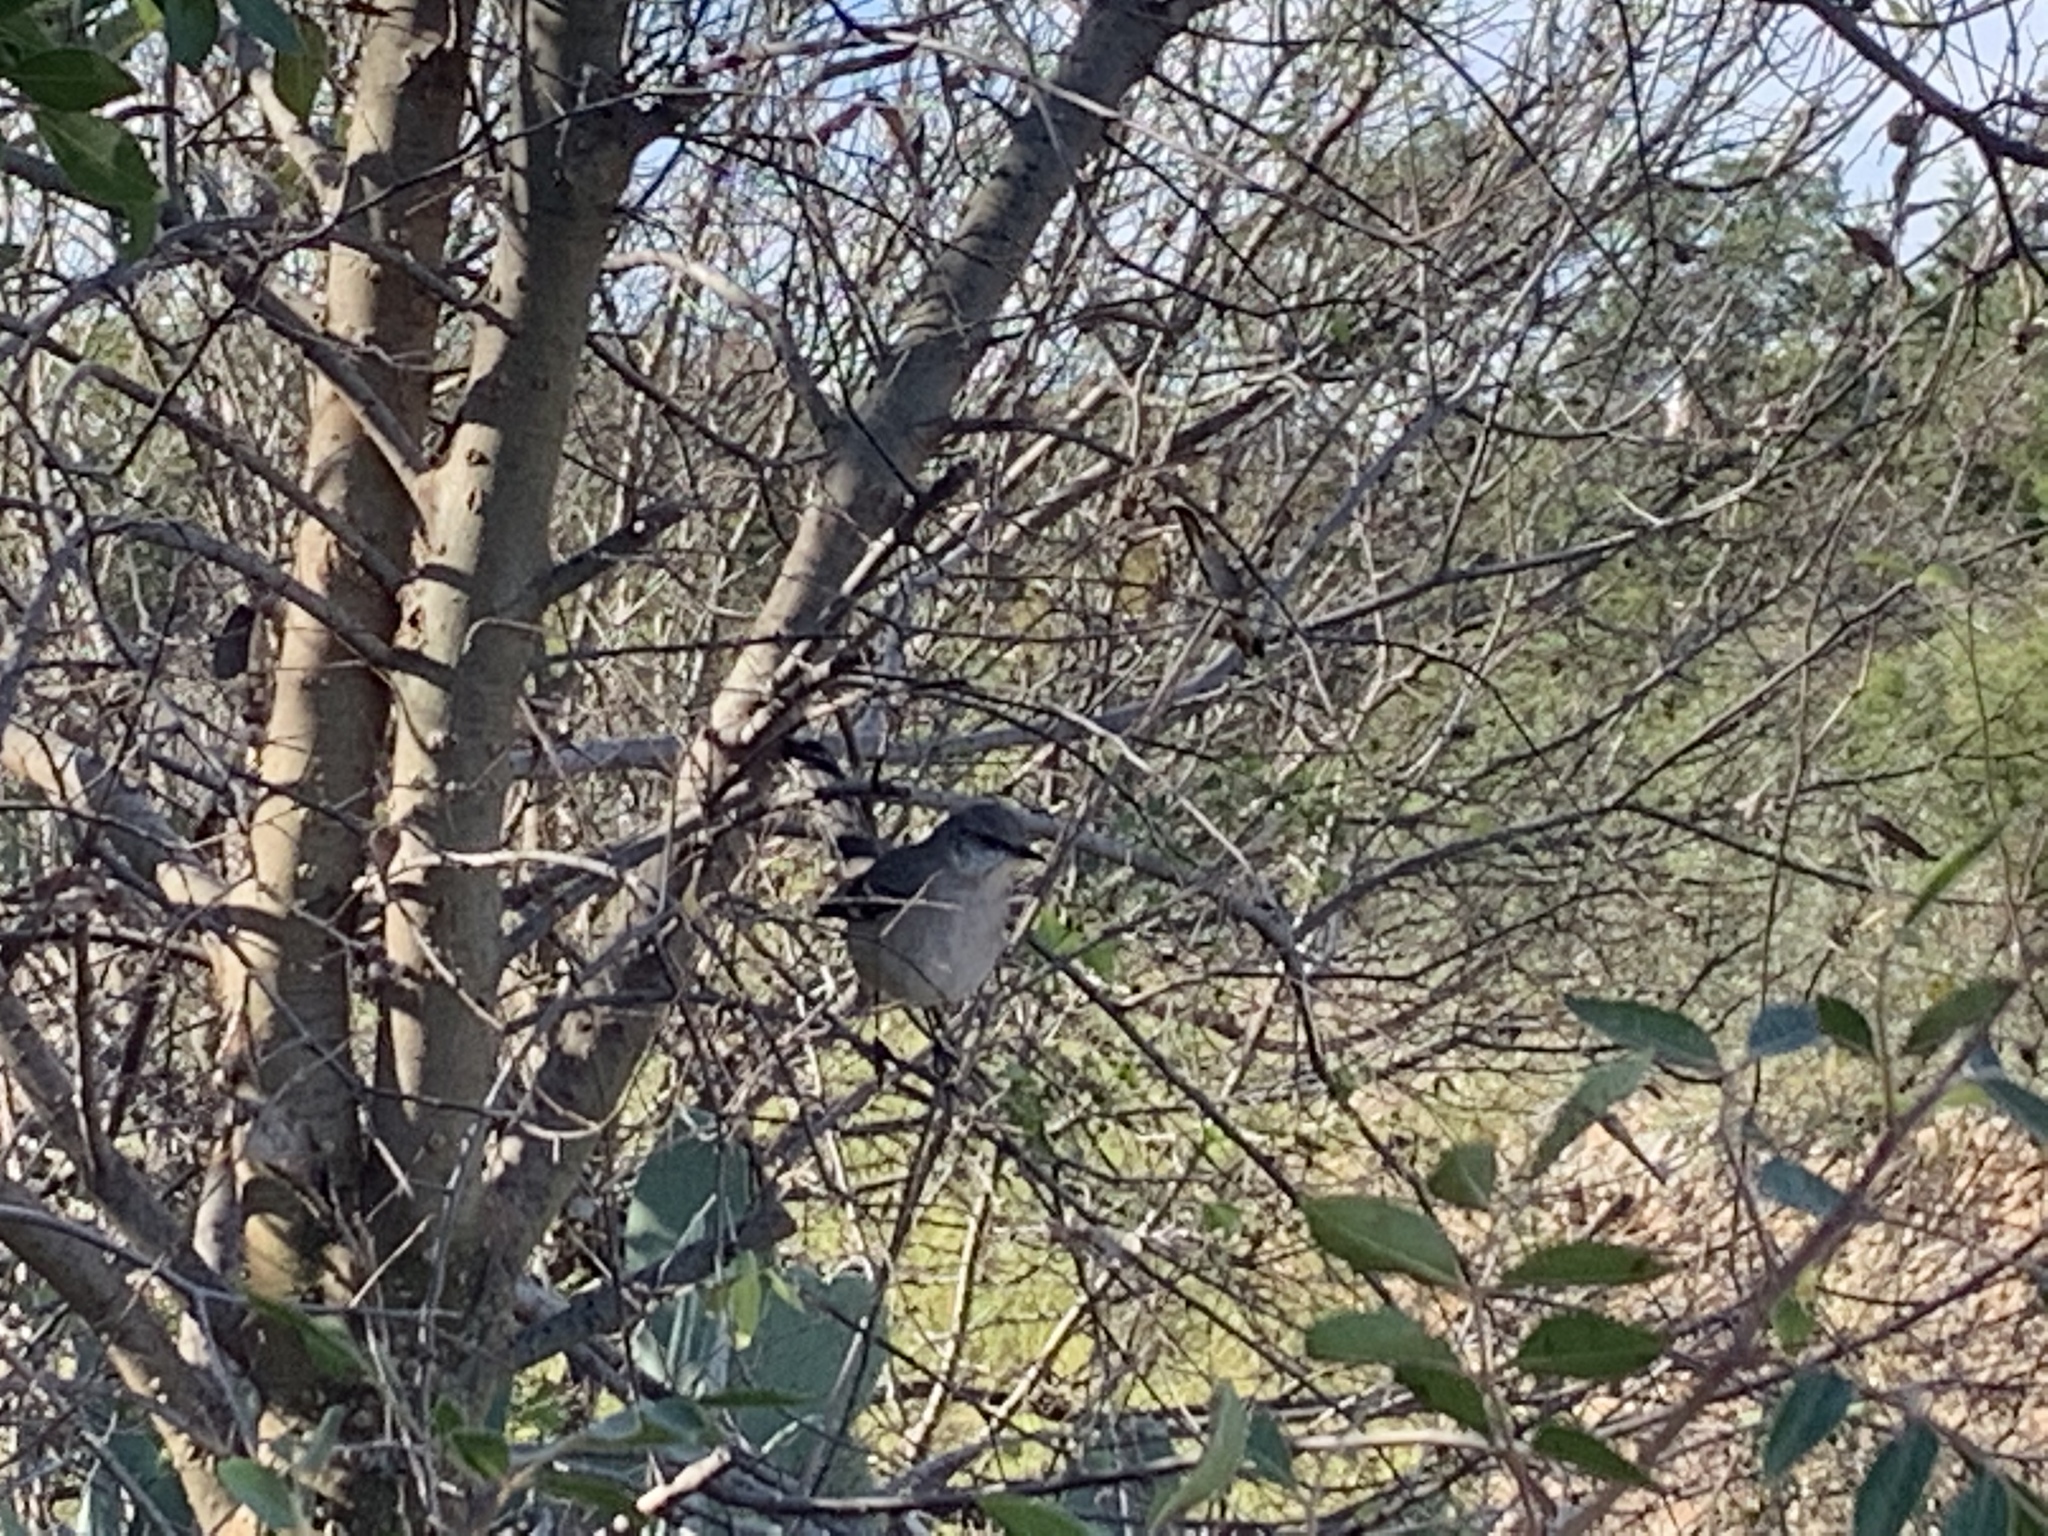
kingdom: Animalia
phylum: Chordata
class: Aves
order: Passeriformes
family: Mimidae
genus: Mimus
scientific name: Mimus polyglottos
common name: Northern mockingbird
